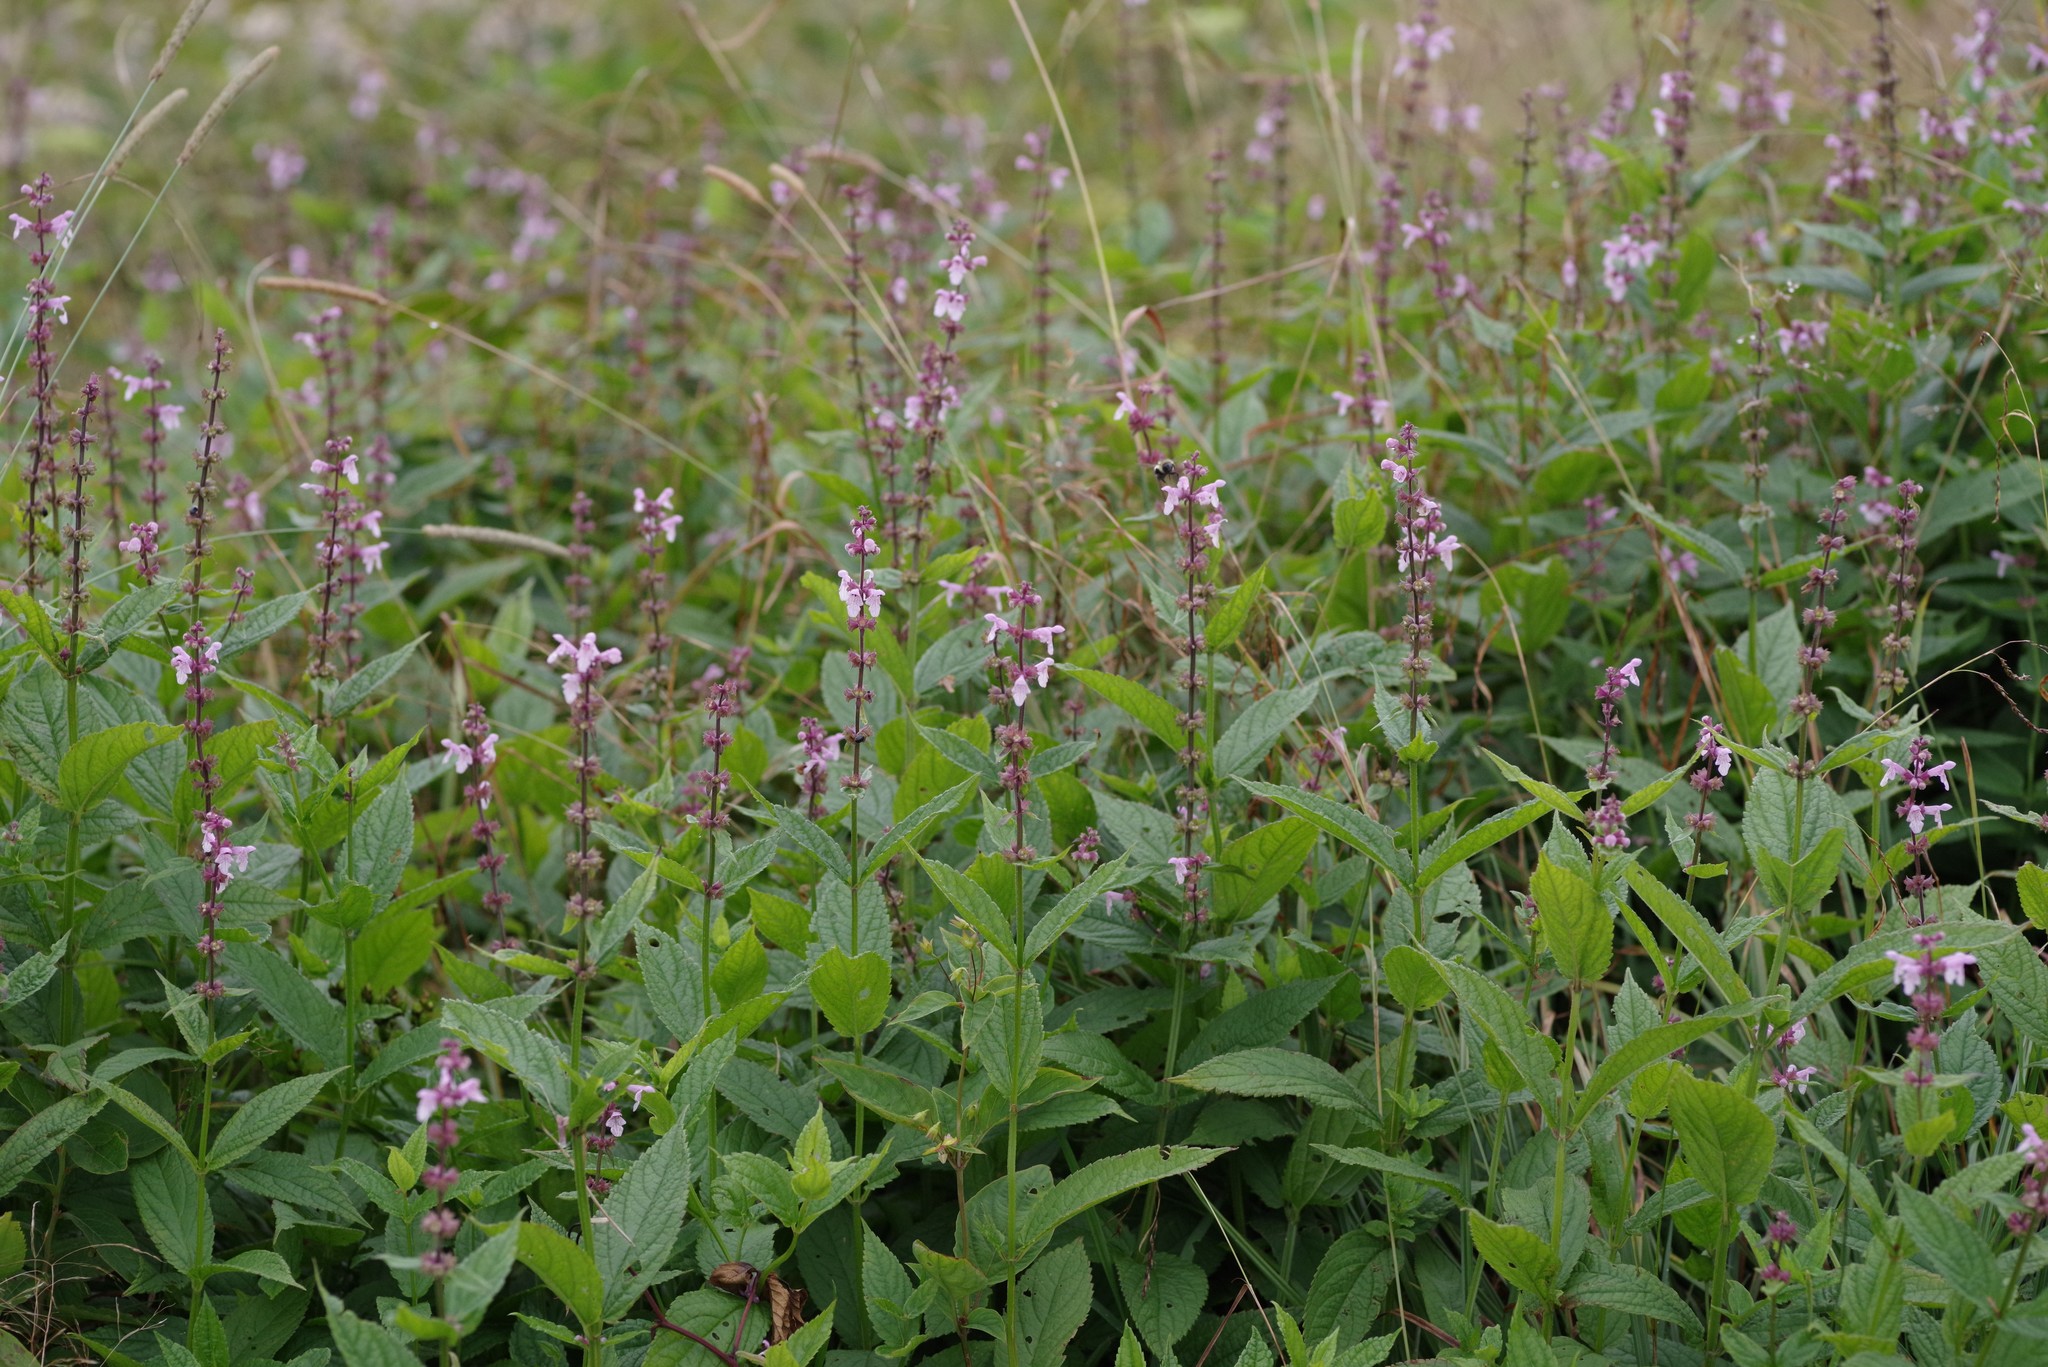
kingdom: Plantae
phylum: Tracheophyta
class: Magnoliopsida
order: Lamiales
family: Lamiaceae
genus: Stachys
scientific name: Stachys latidens
